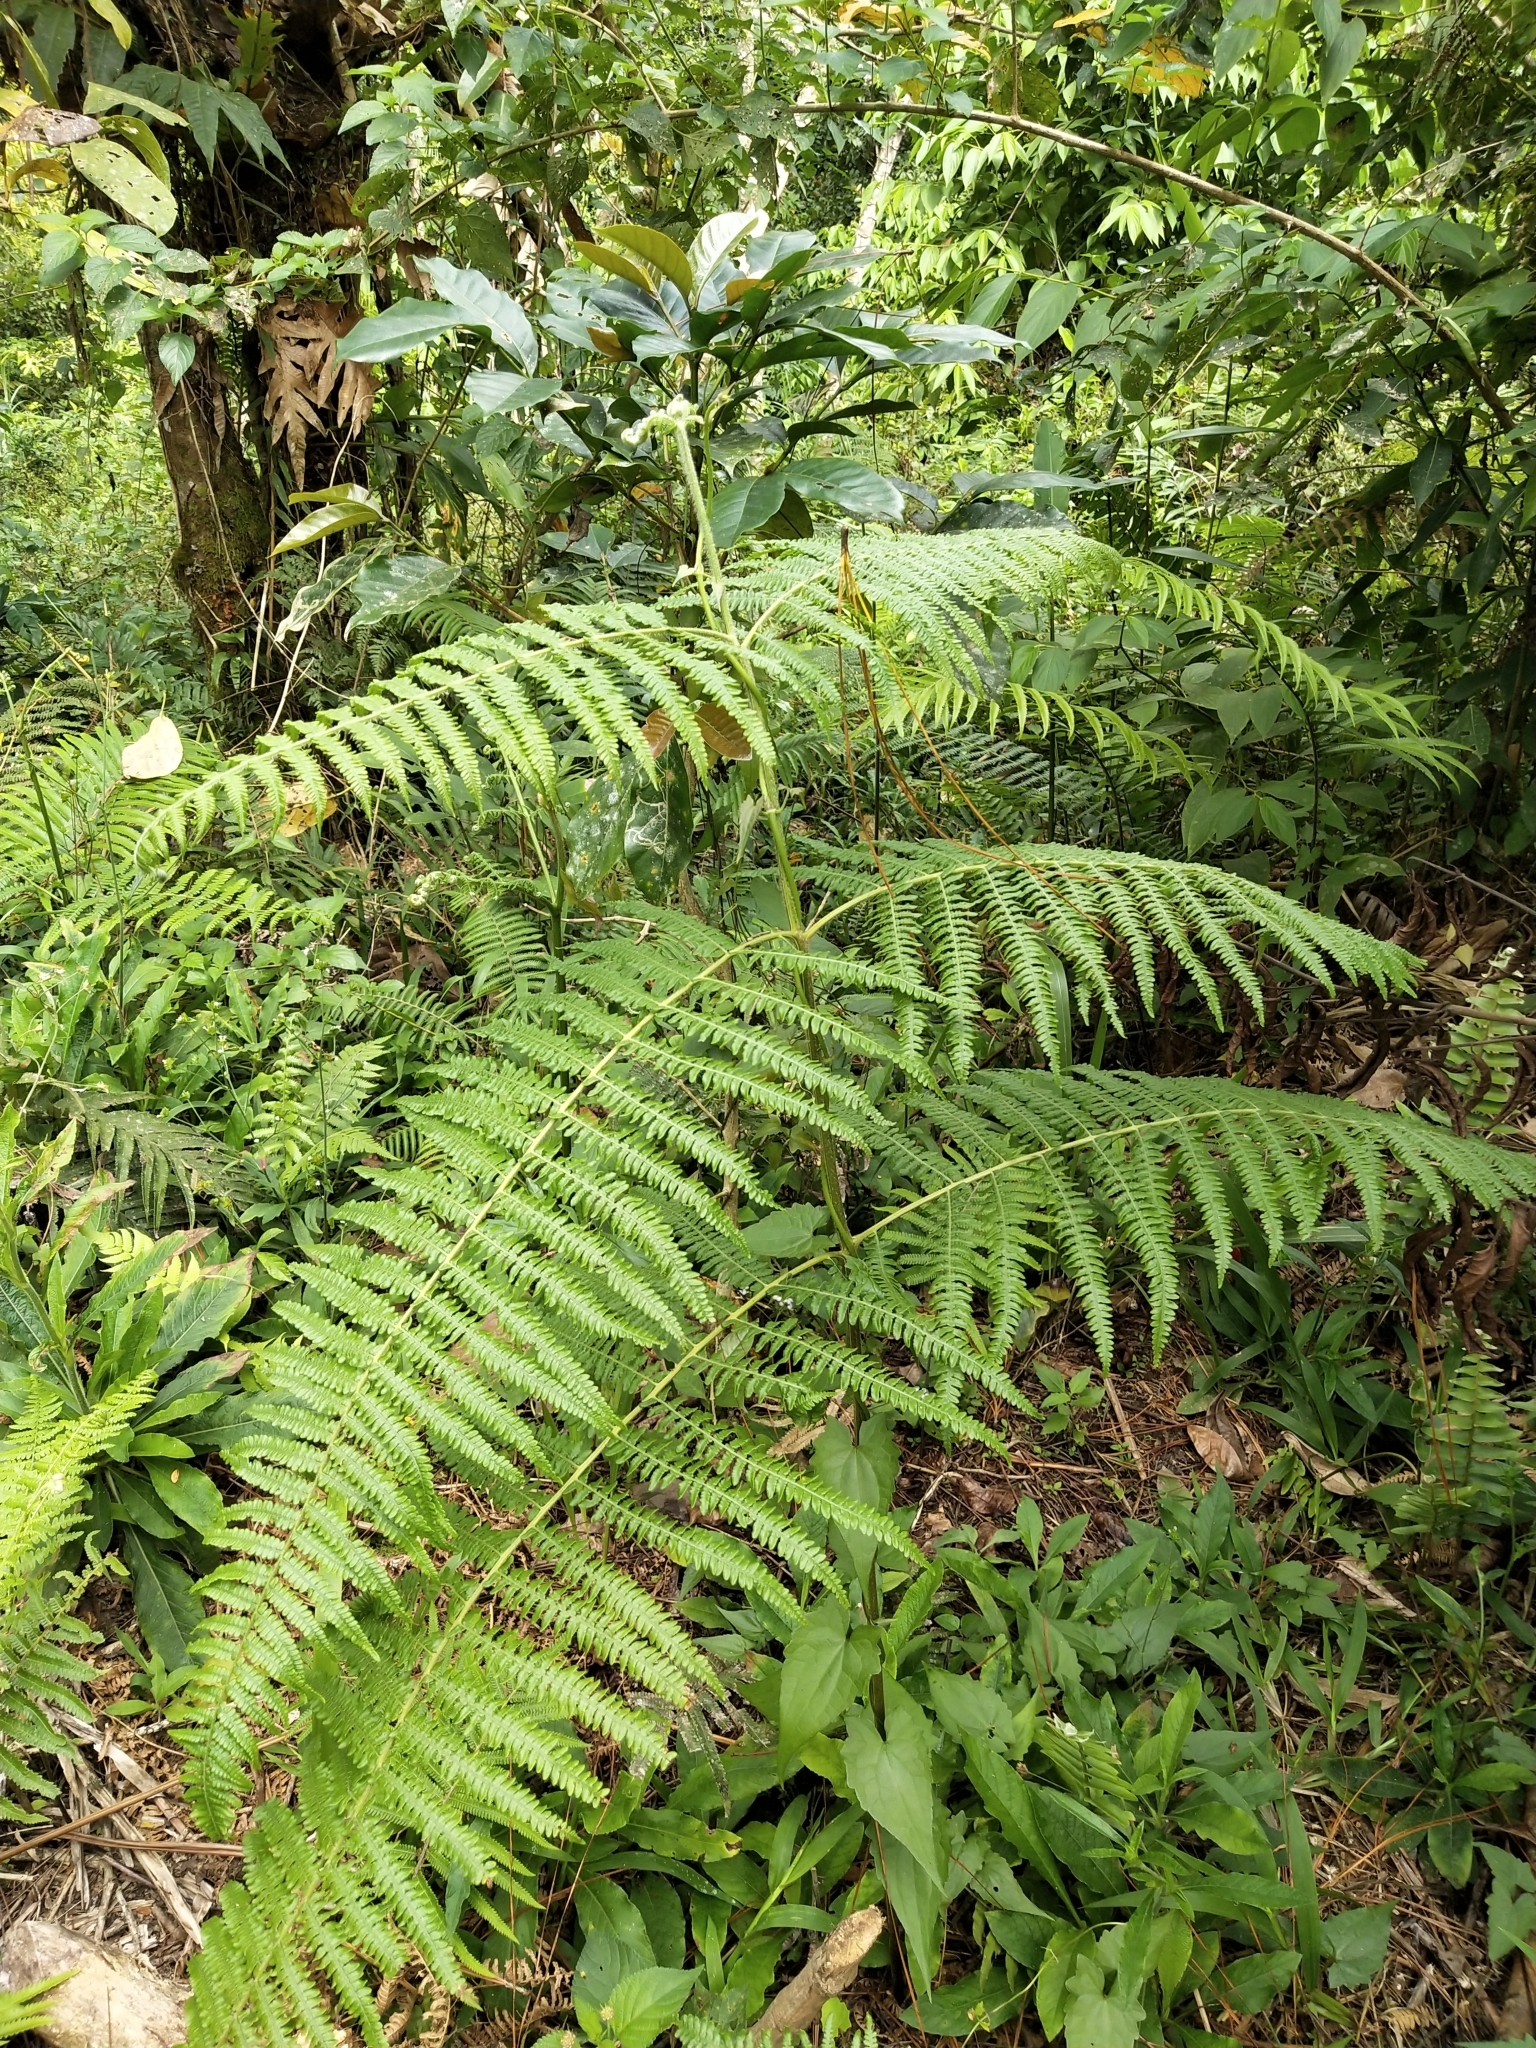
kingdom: Plantae
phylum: Tracheophyta
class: Polypodiopsida
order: Polypodiales
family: Dennstaedtiaceae
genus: Pteridium
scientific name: Pteridium aquilinum
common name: Bracken
